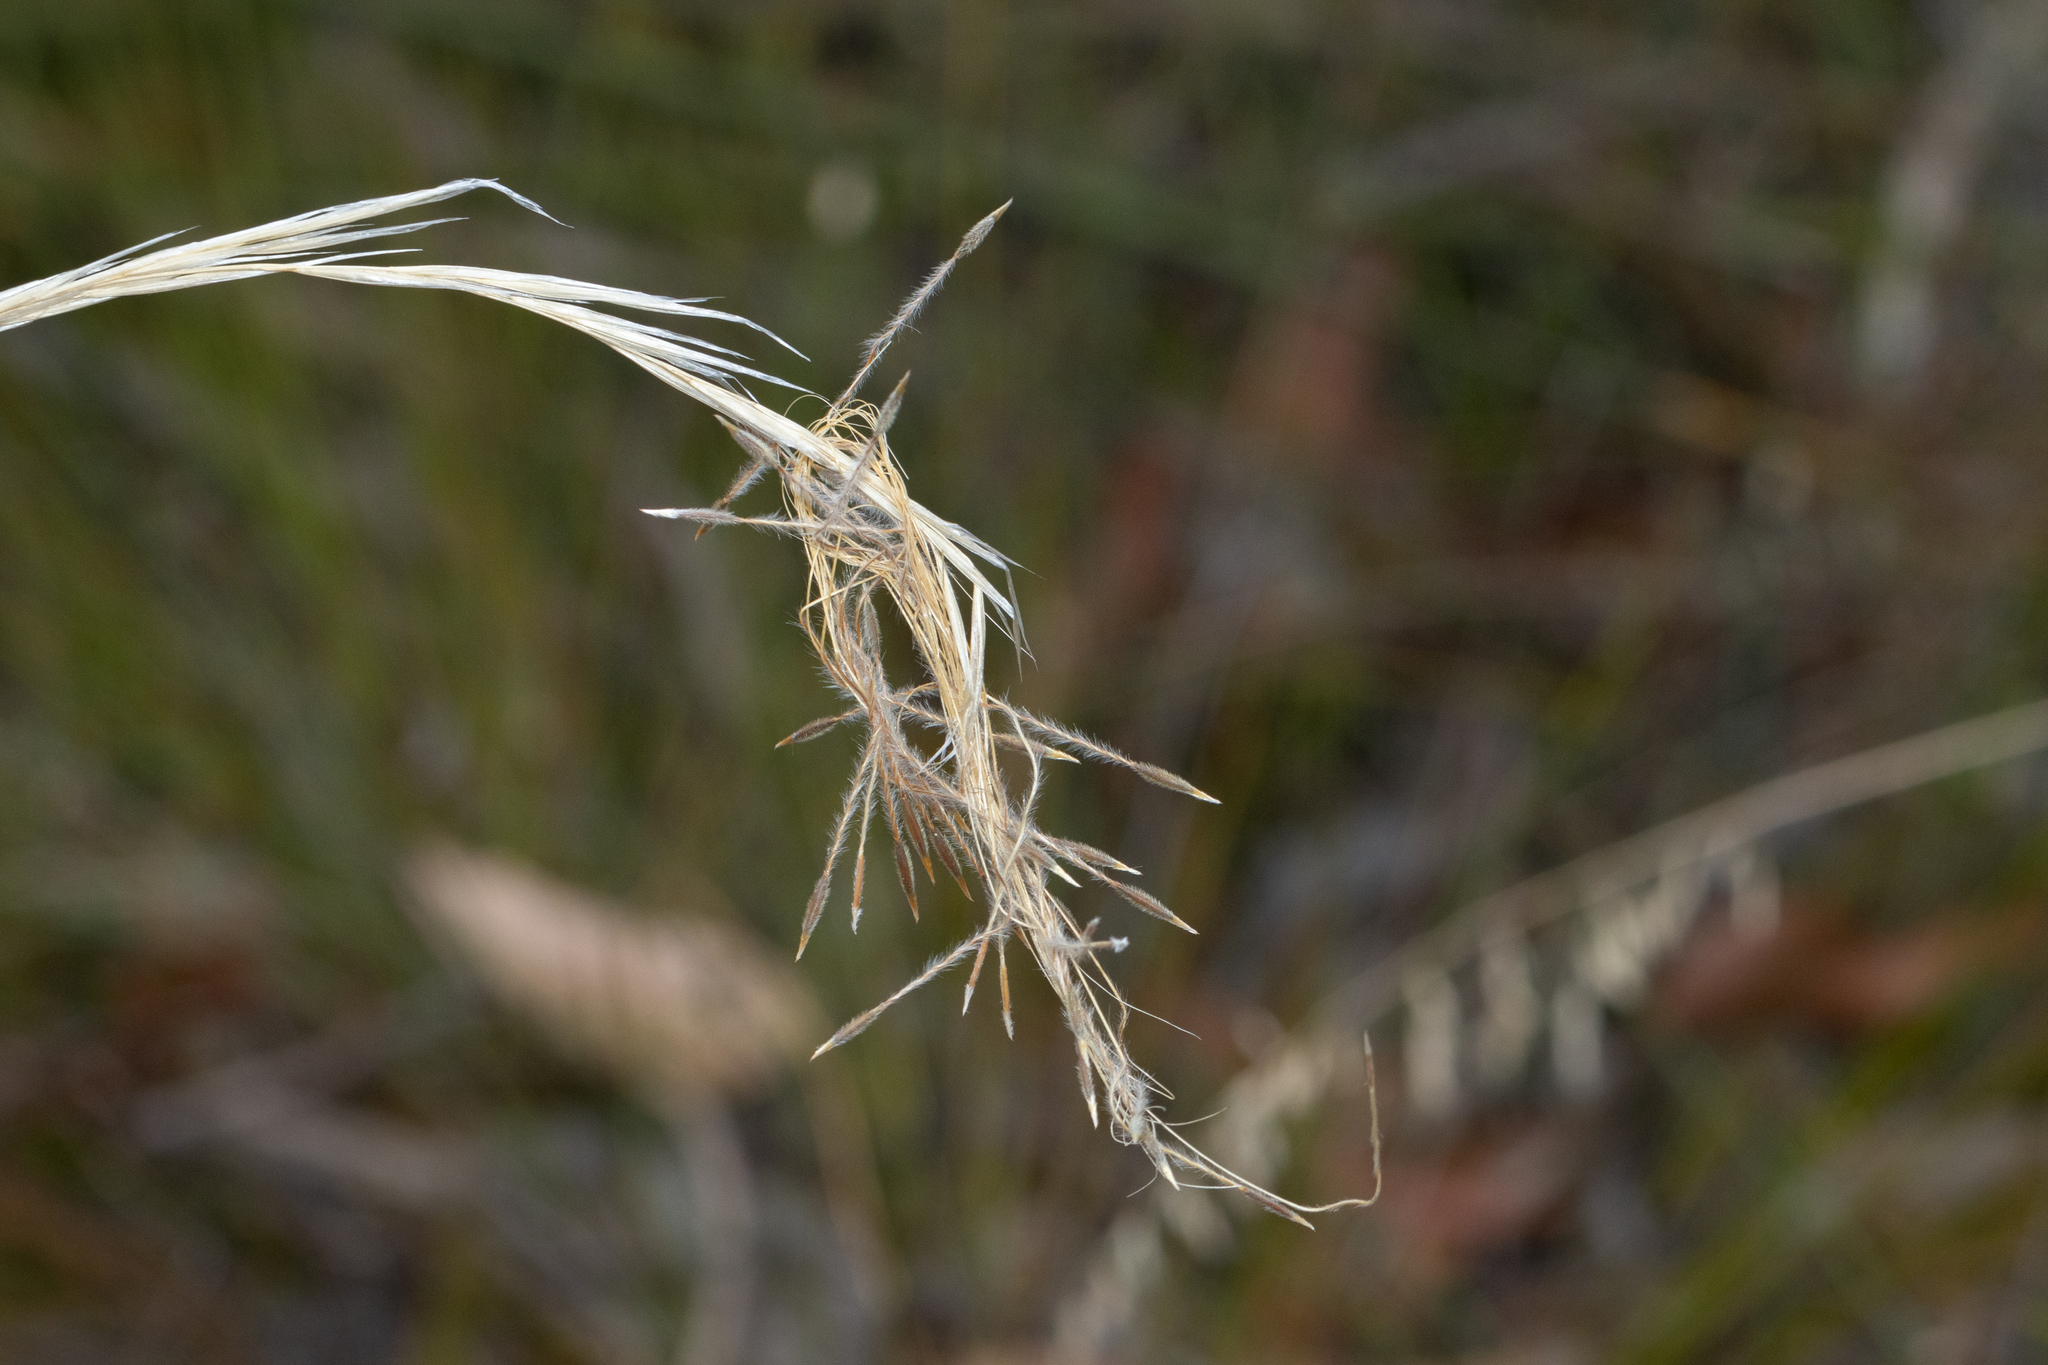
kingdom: Plantae
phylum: Tracheophyta
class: Liliopsida
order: Poales
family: Poaceae
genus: Austrostipa
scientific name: Austrostipa mollis
